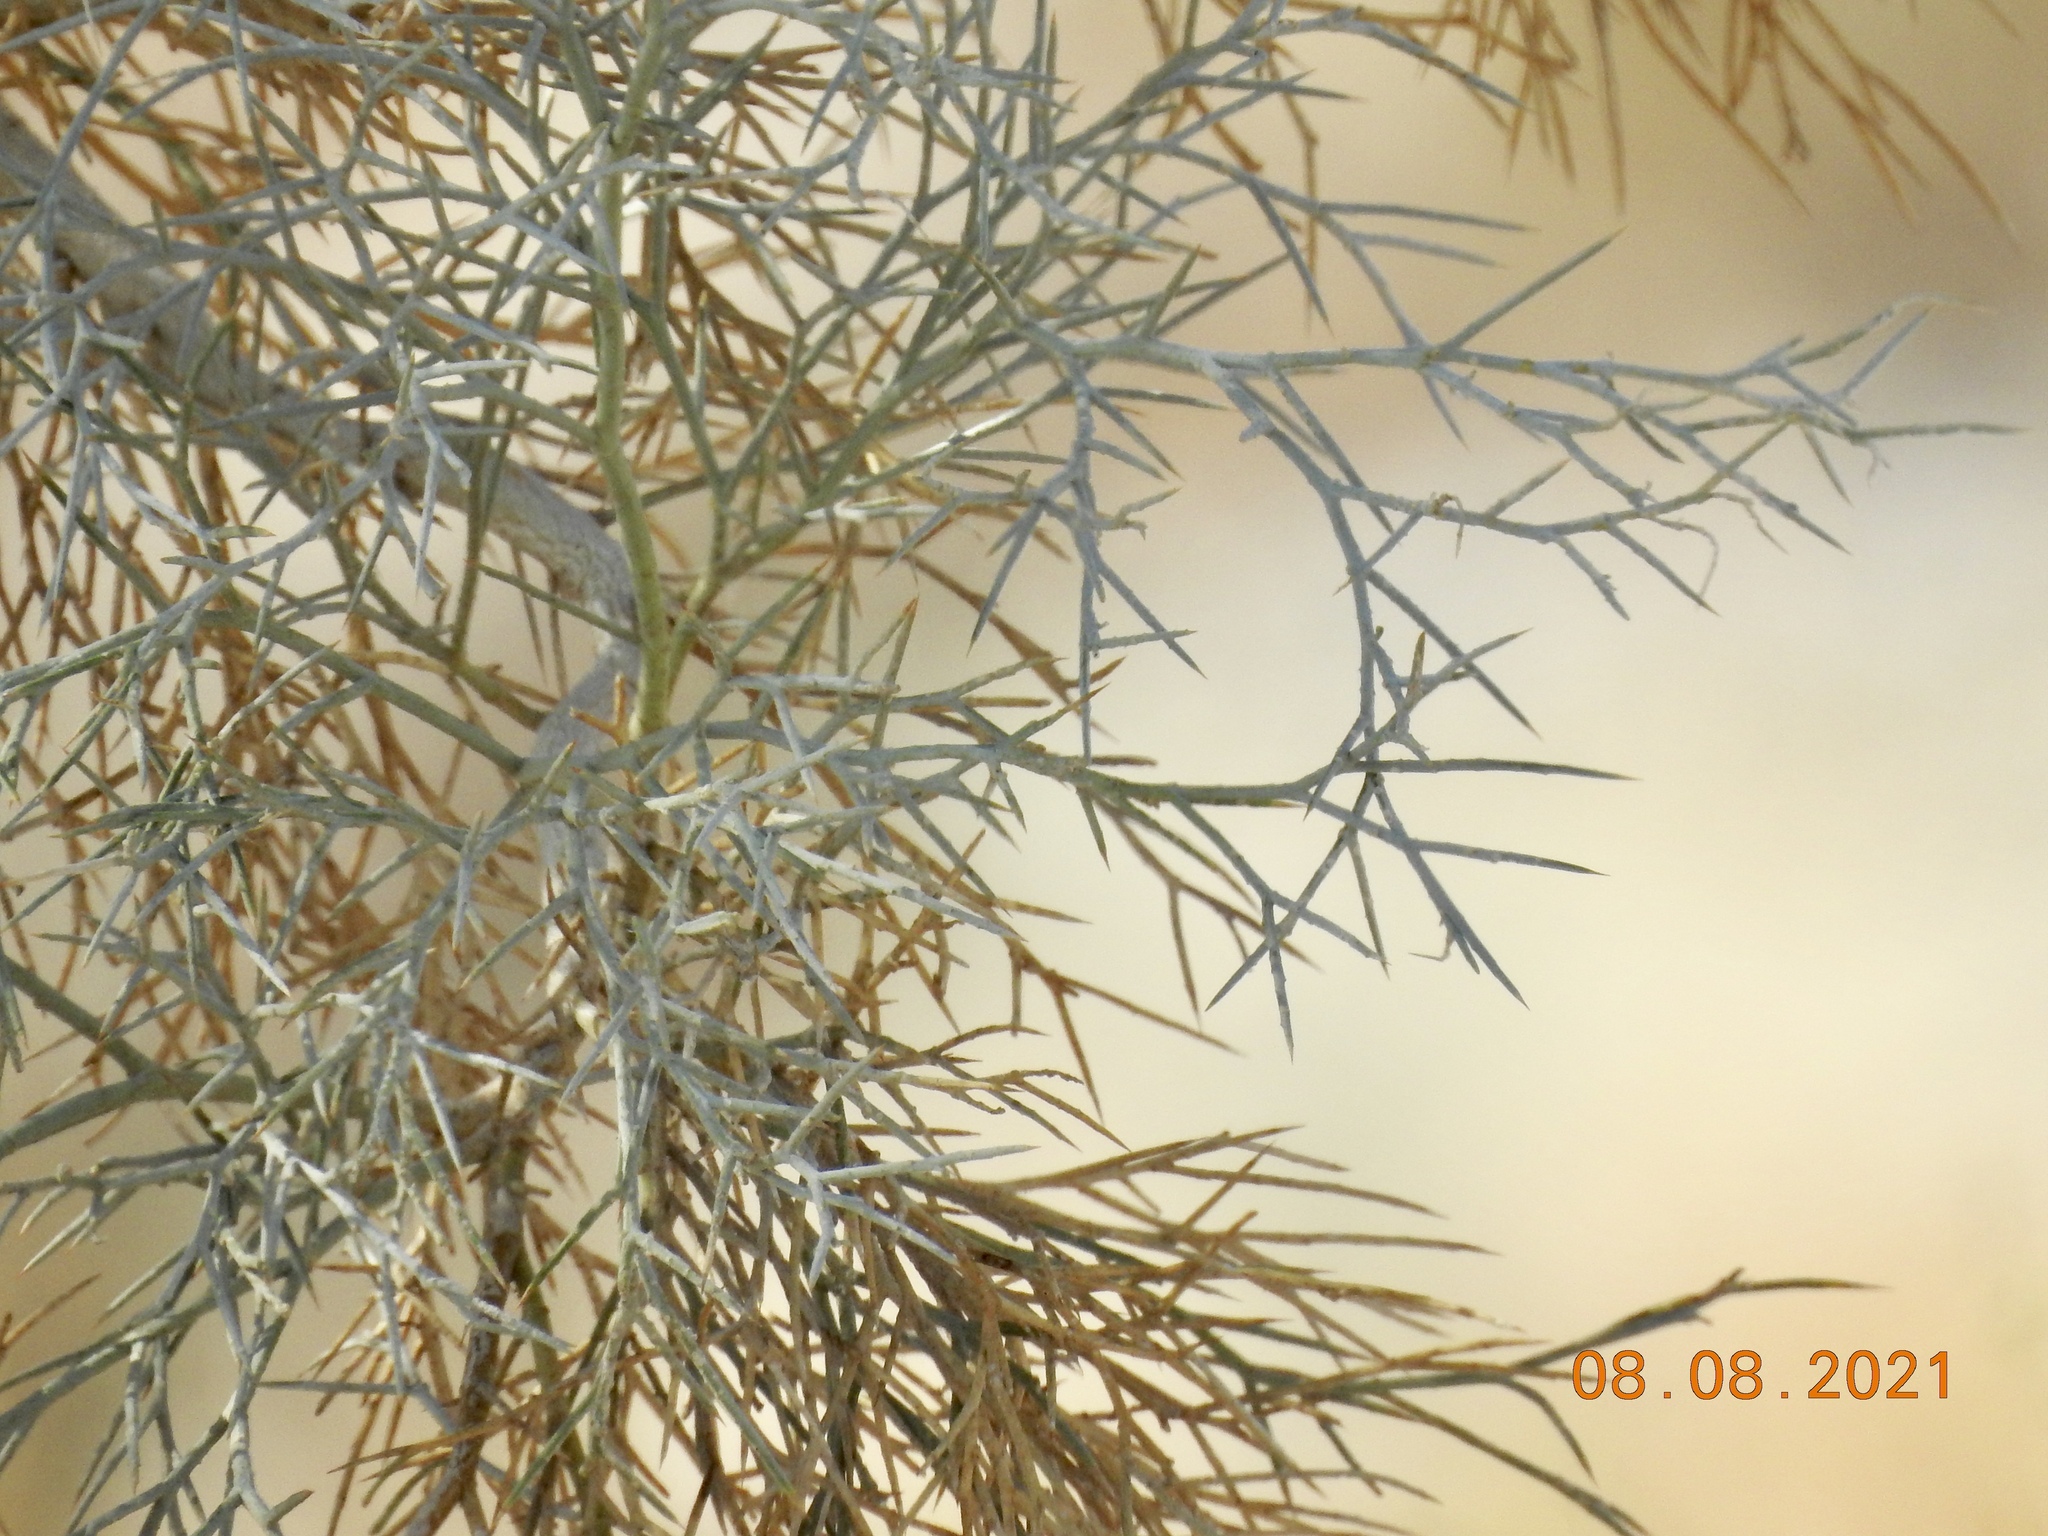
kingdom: Plantae
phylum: Tracheophyta
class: Magnoliopsida
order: Fabales
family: Fabaceae
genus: Psorothamnus
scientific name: Psorothamnus spinosus
